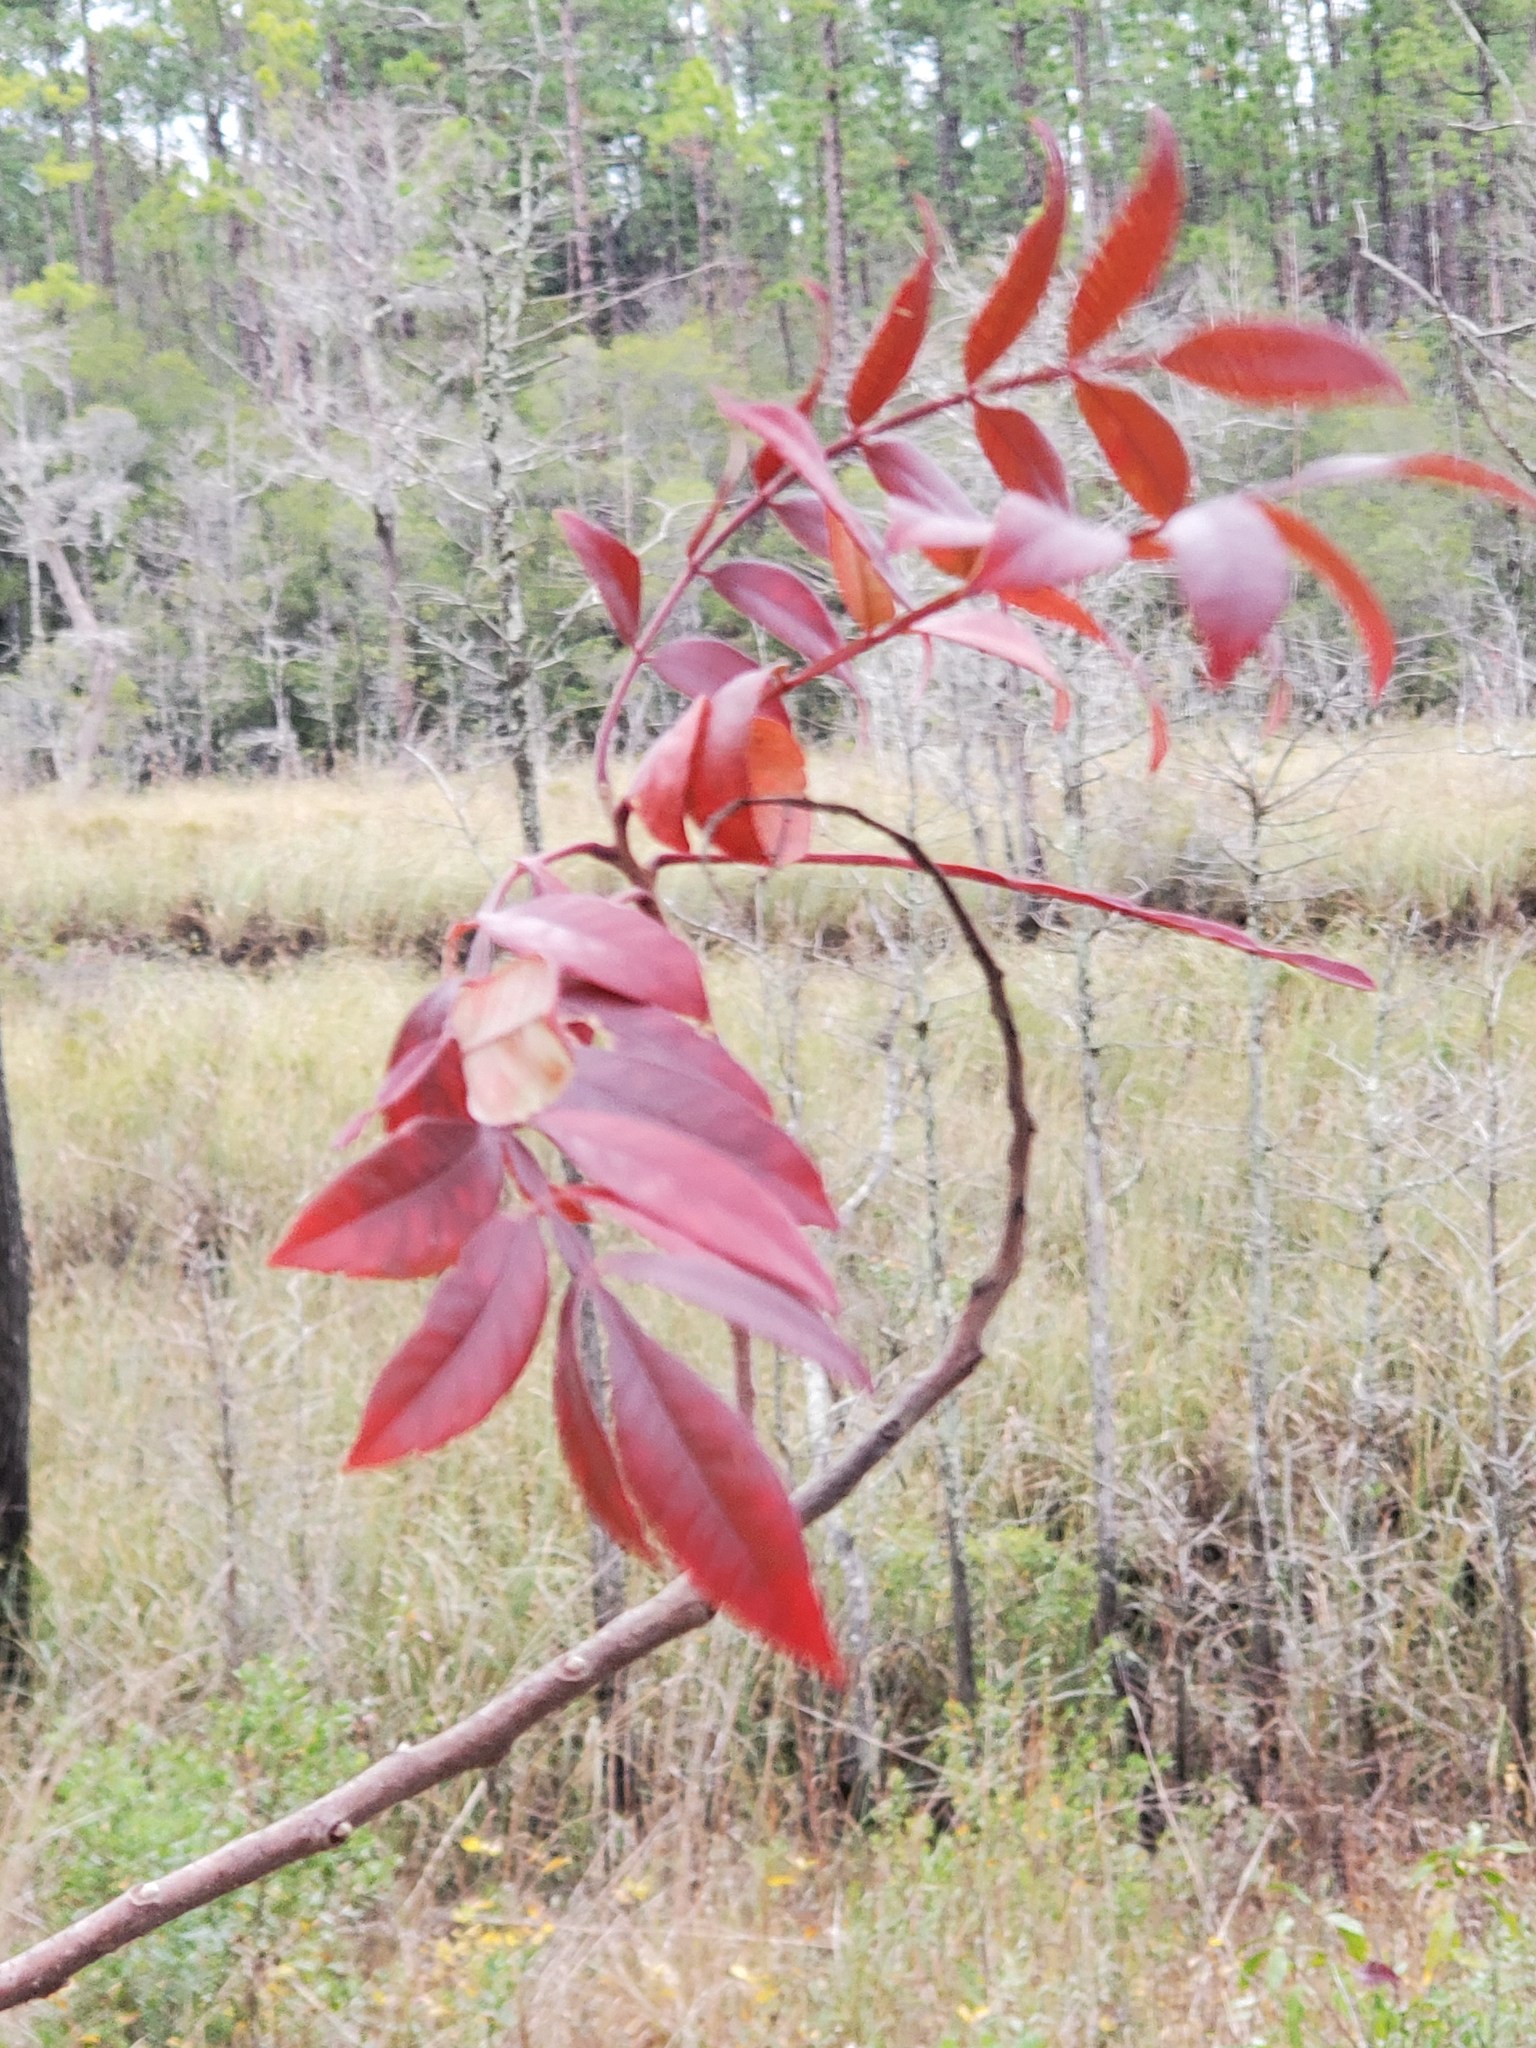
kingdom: Plantae
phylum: Tracheophyta
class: Magnoliopsida
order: Sapindales
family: Anacardiaceae
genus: Rhus
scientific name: Rhus copallina
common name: Shining sumac
